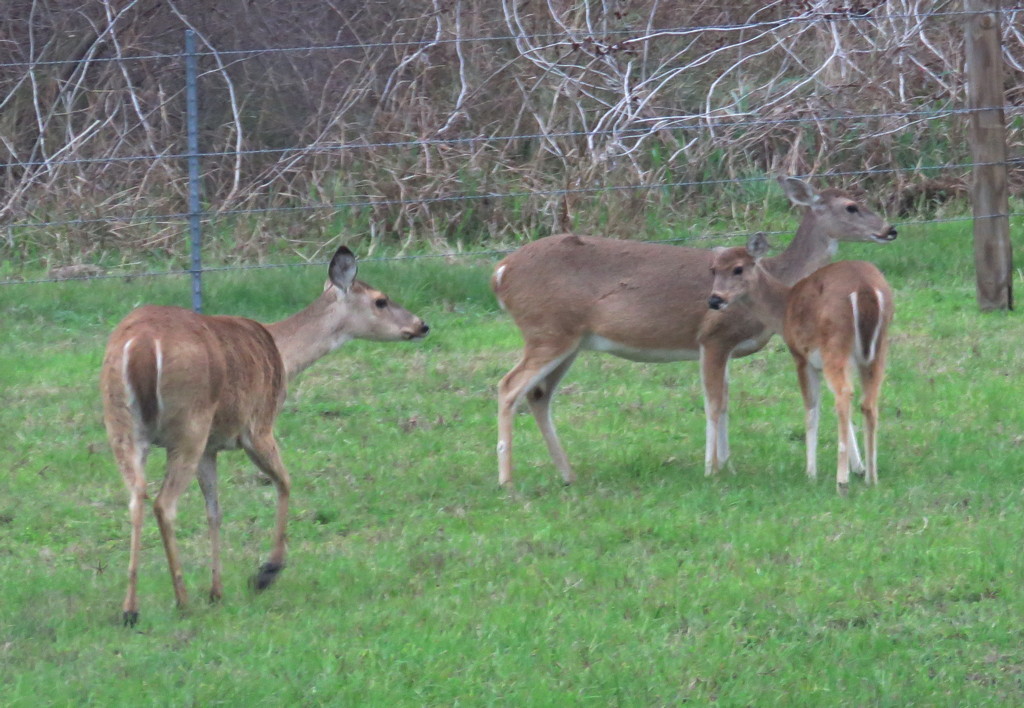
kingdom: Animalia
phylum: Chordata
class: Mammalia
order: Artiodactyla
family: Cervidae
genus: Odocoileus
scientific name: Odocoileus virginianus
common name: White-tailed deer
